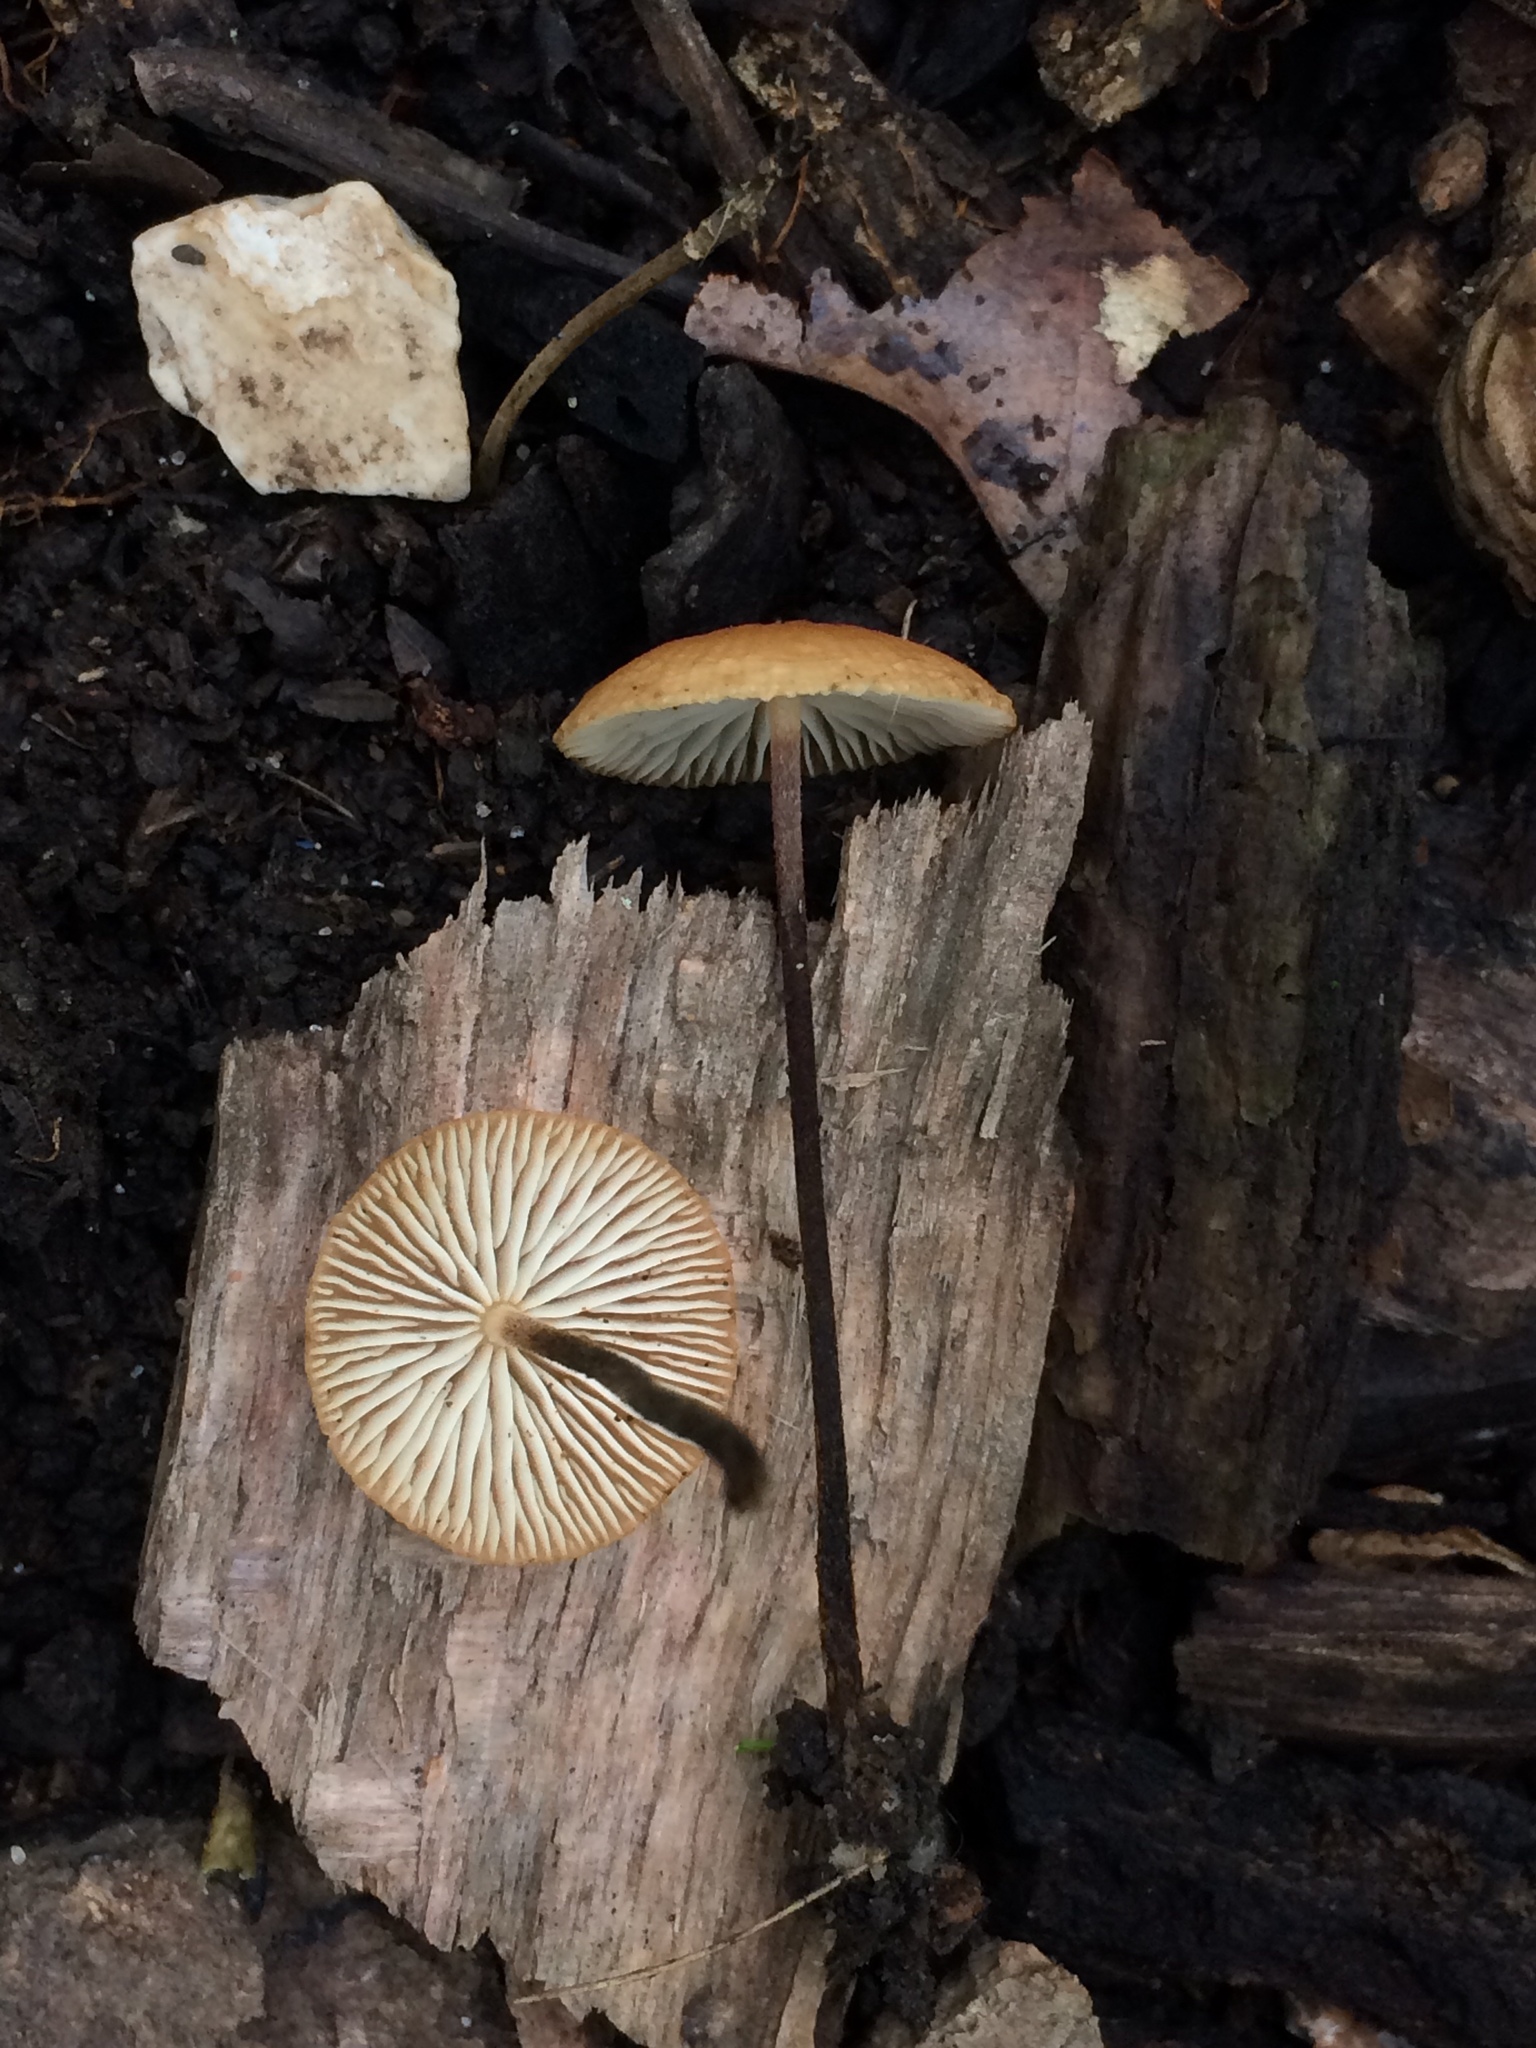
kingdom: Fungi
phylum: Basidiomycota
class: Agaricomycetes
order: Agaricales
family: Physalacriaceae
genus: Rhizomarasmius
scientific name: Rhizomarasmius pyrrhocephalus
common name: Hairy long stem marasmius
